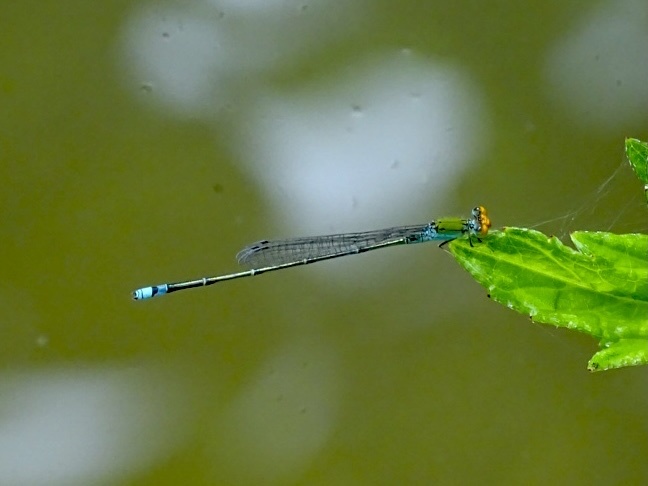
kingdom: Animalia
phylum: Arthropoda
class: Insecta
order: Odonata
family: Coenagrionidae
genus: Pseudagrion
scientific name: Pseudagrion rubriceps
